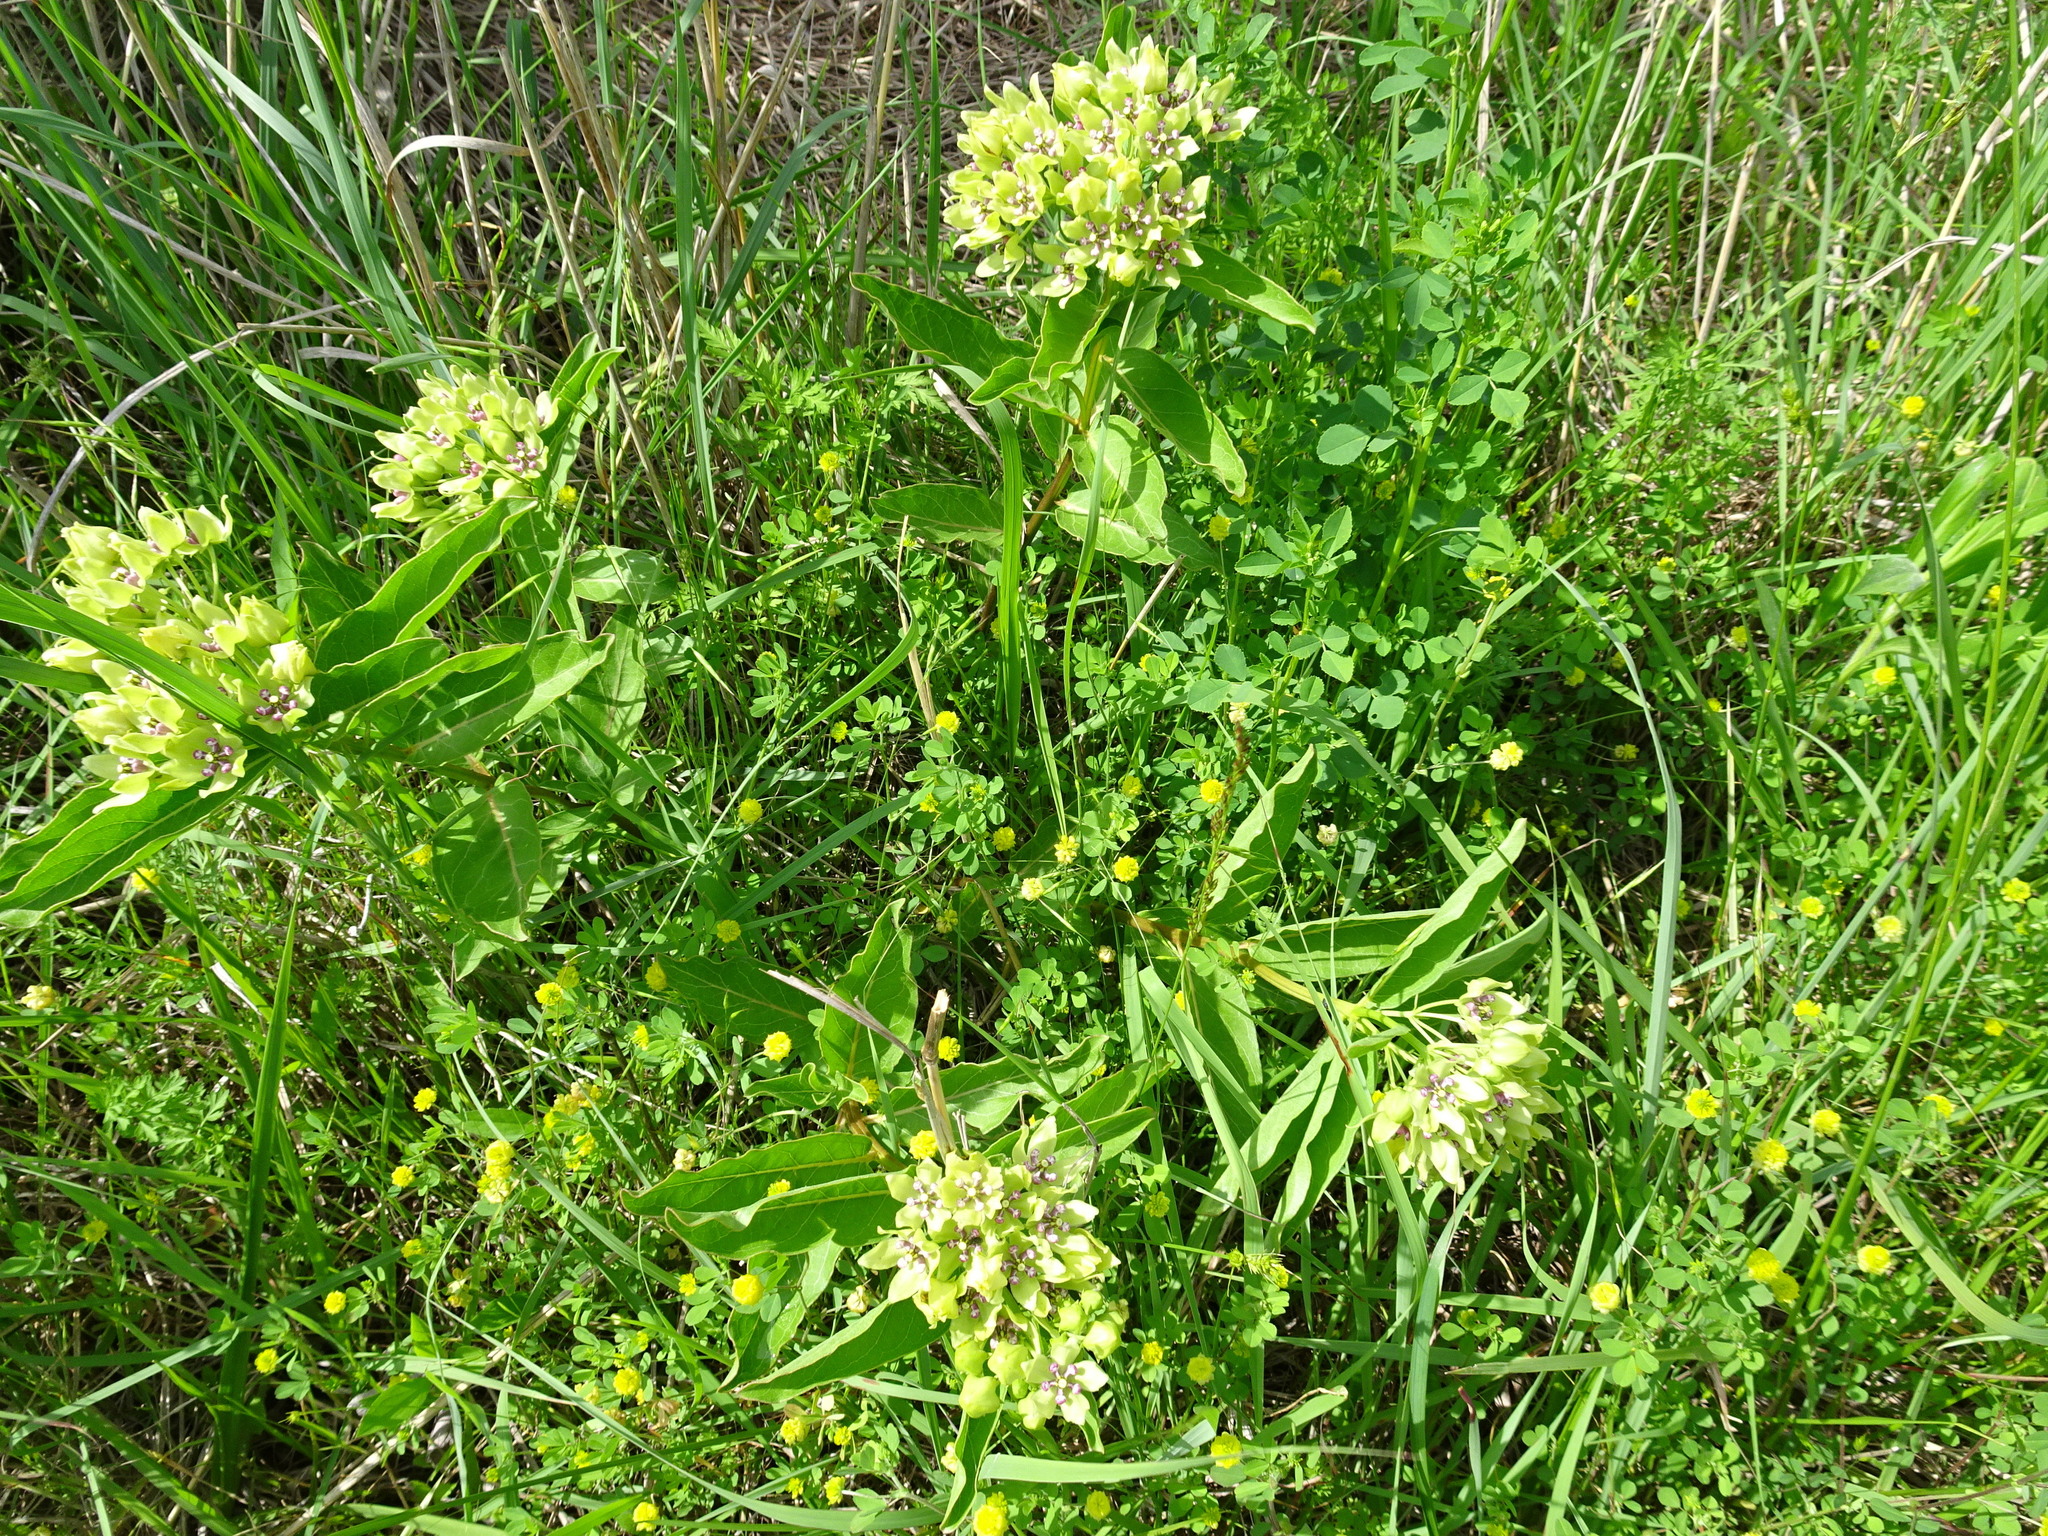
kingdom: Plantae
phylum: Tracheophyta
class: Magnoliopsida
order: Gentianales
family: Apocynaceae
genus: Asclepias
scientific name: Asclepias viridis
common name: Antelope-horns
